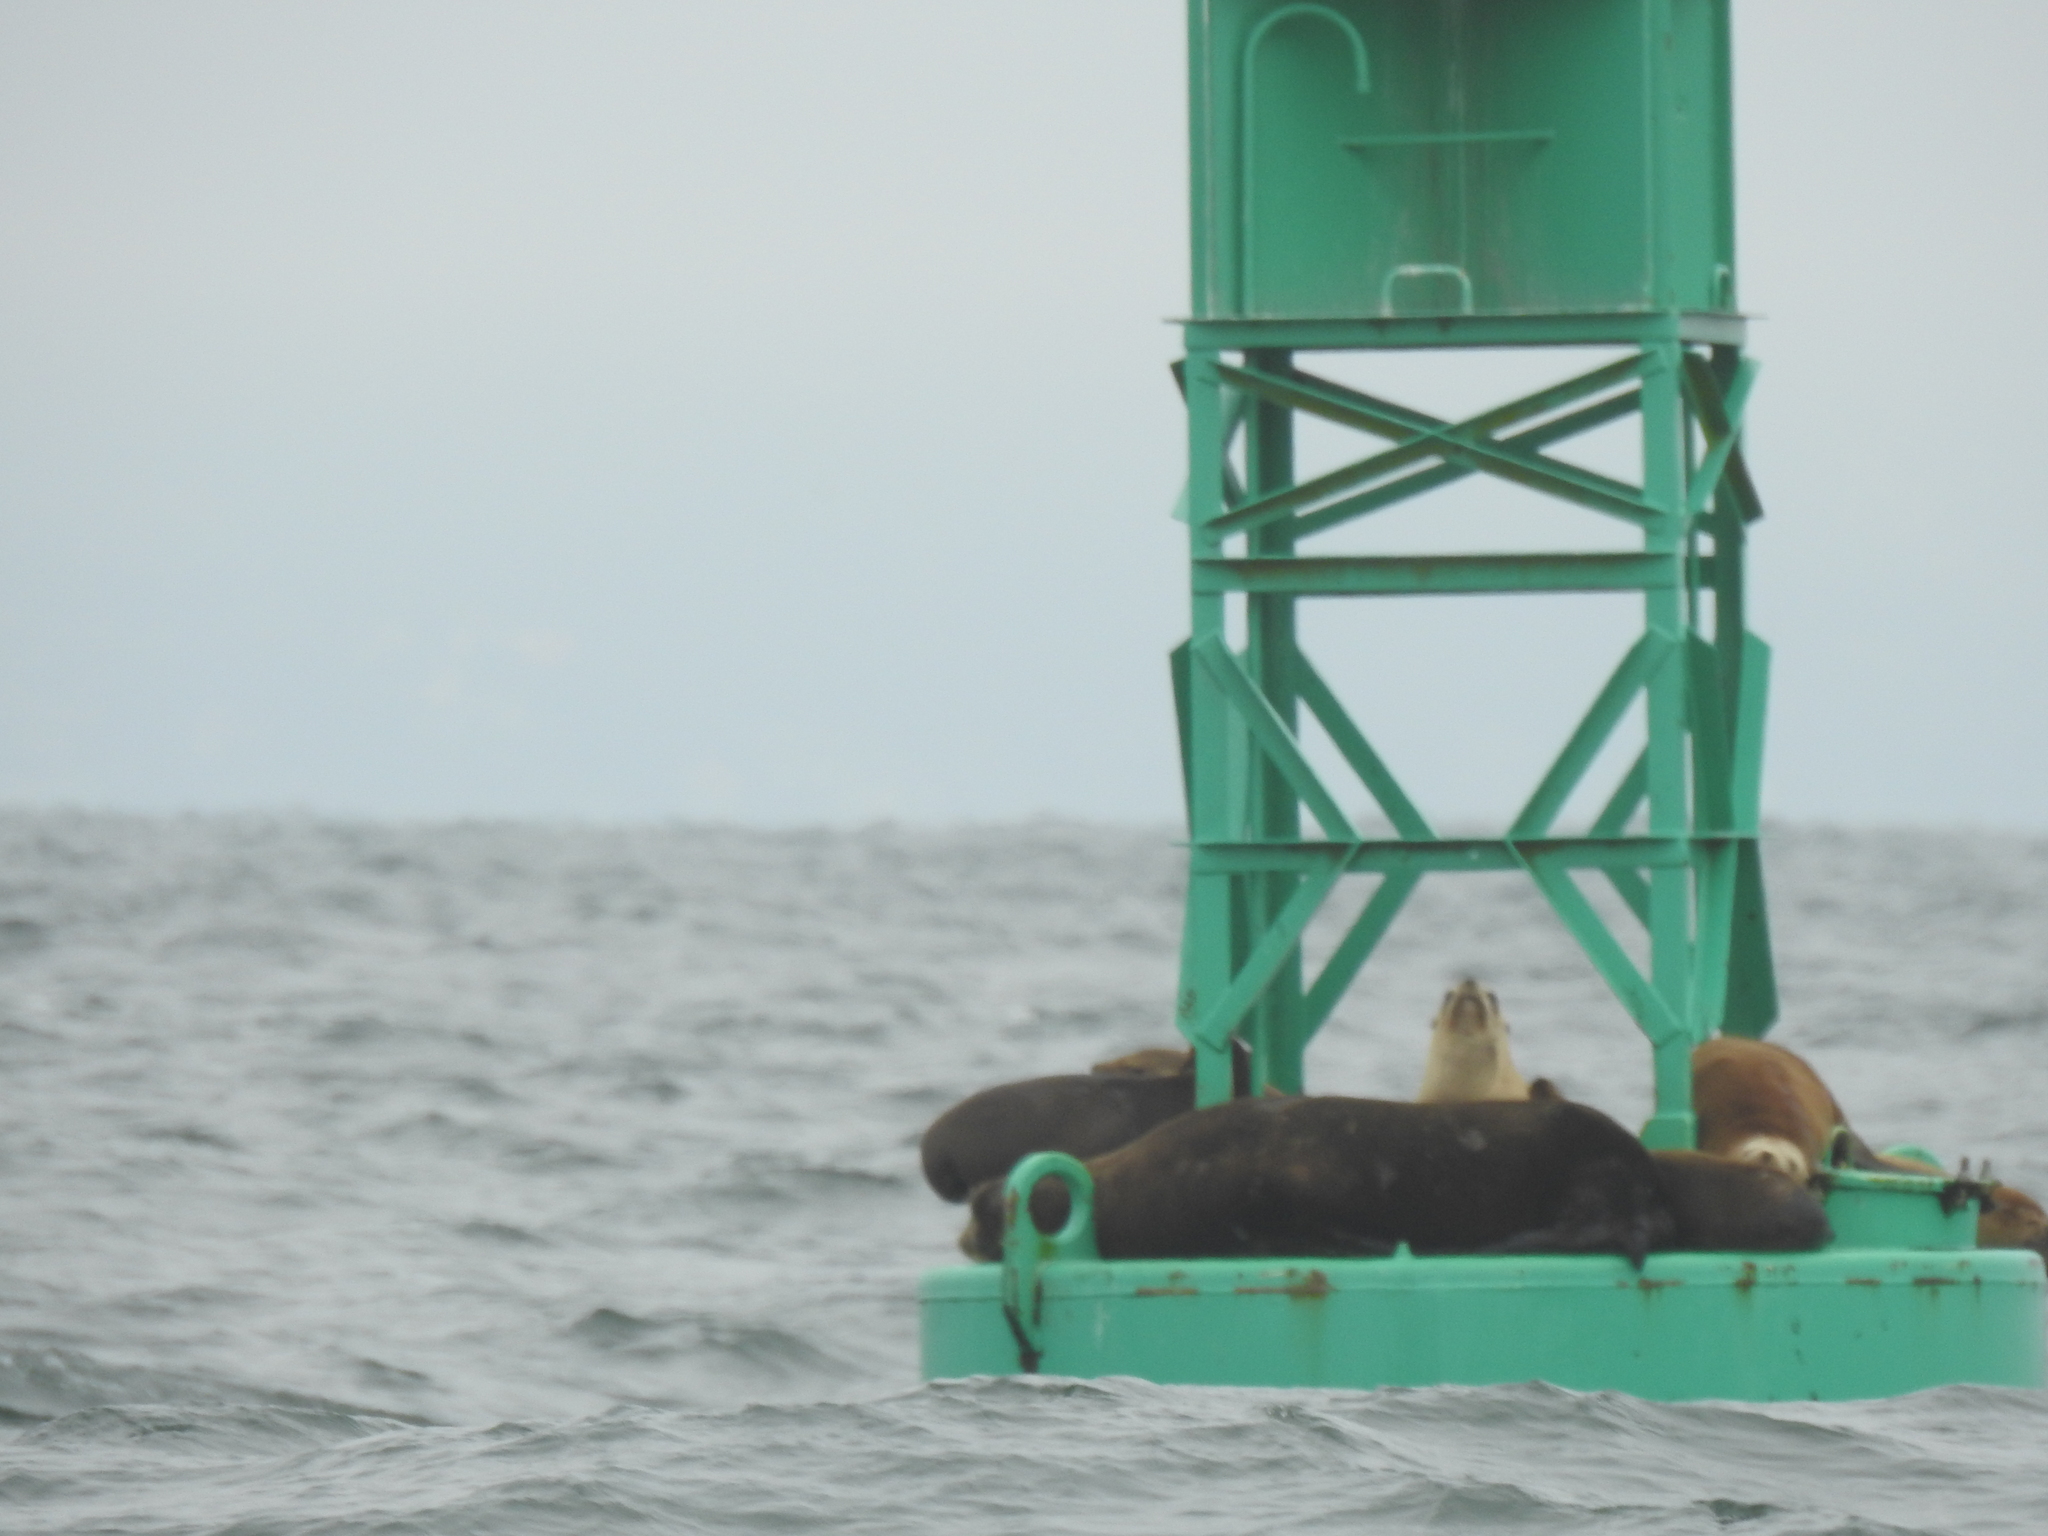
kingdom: Animalia
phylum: Chordata
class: Mammalia
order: Carnivora
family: Otariidae
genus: Zalophus
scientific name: Zalophus californianus
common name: California sea lion
